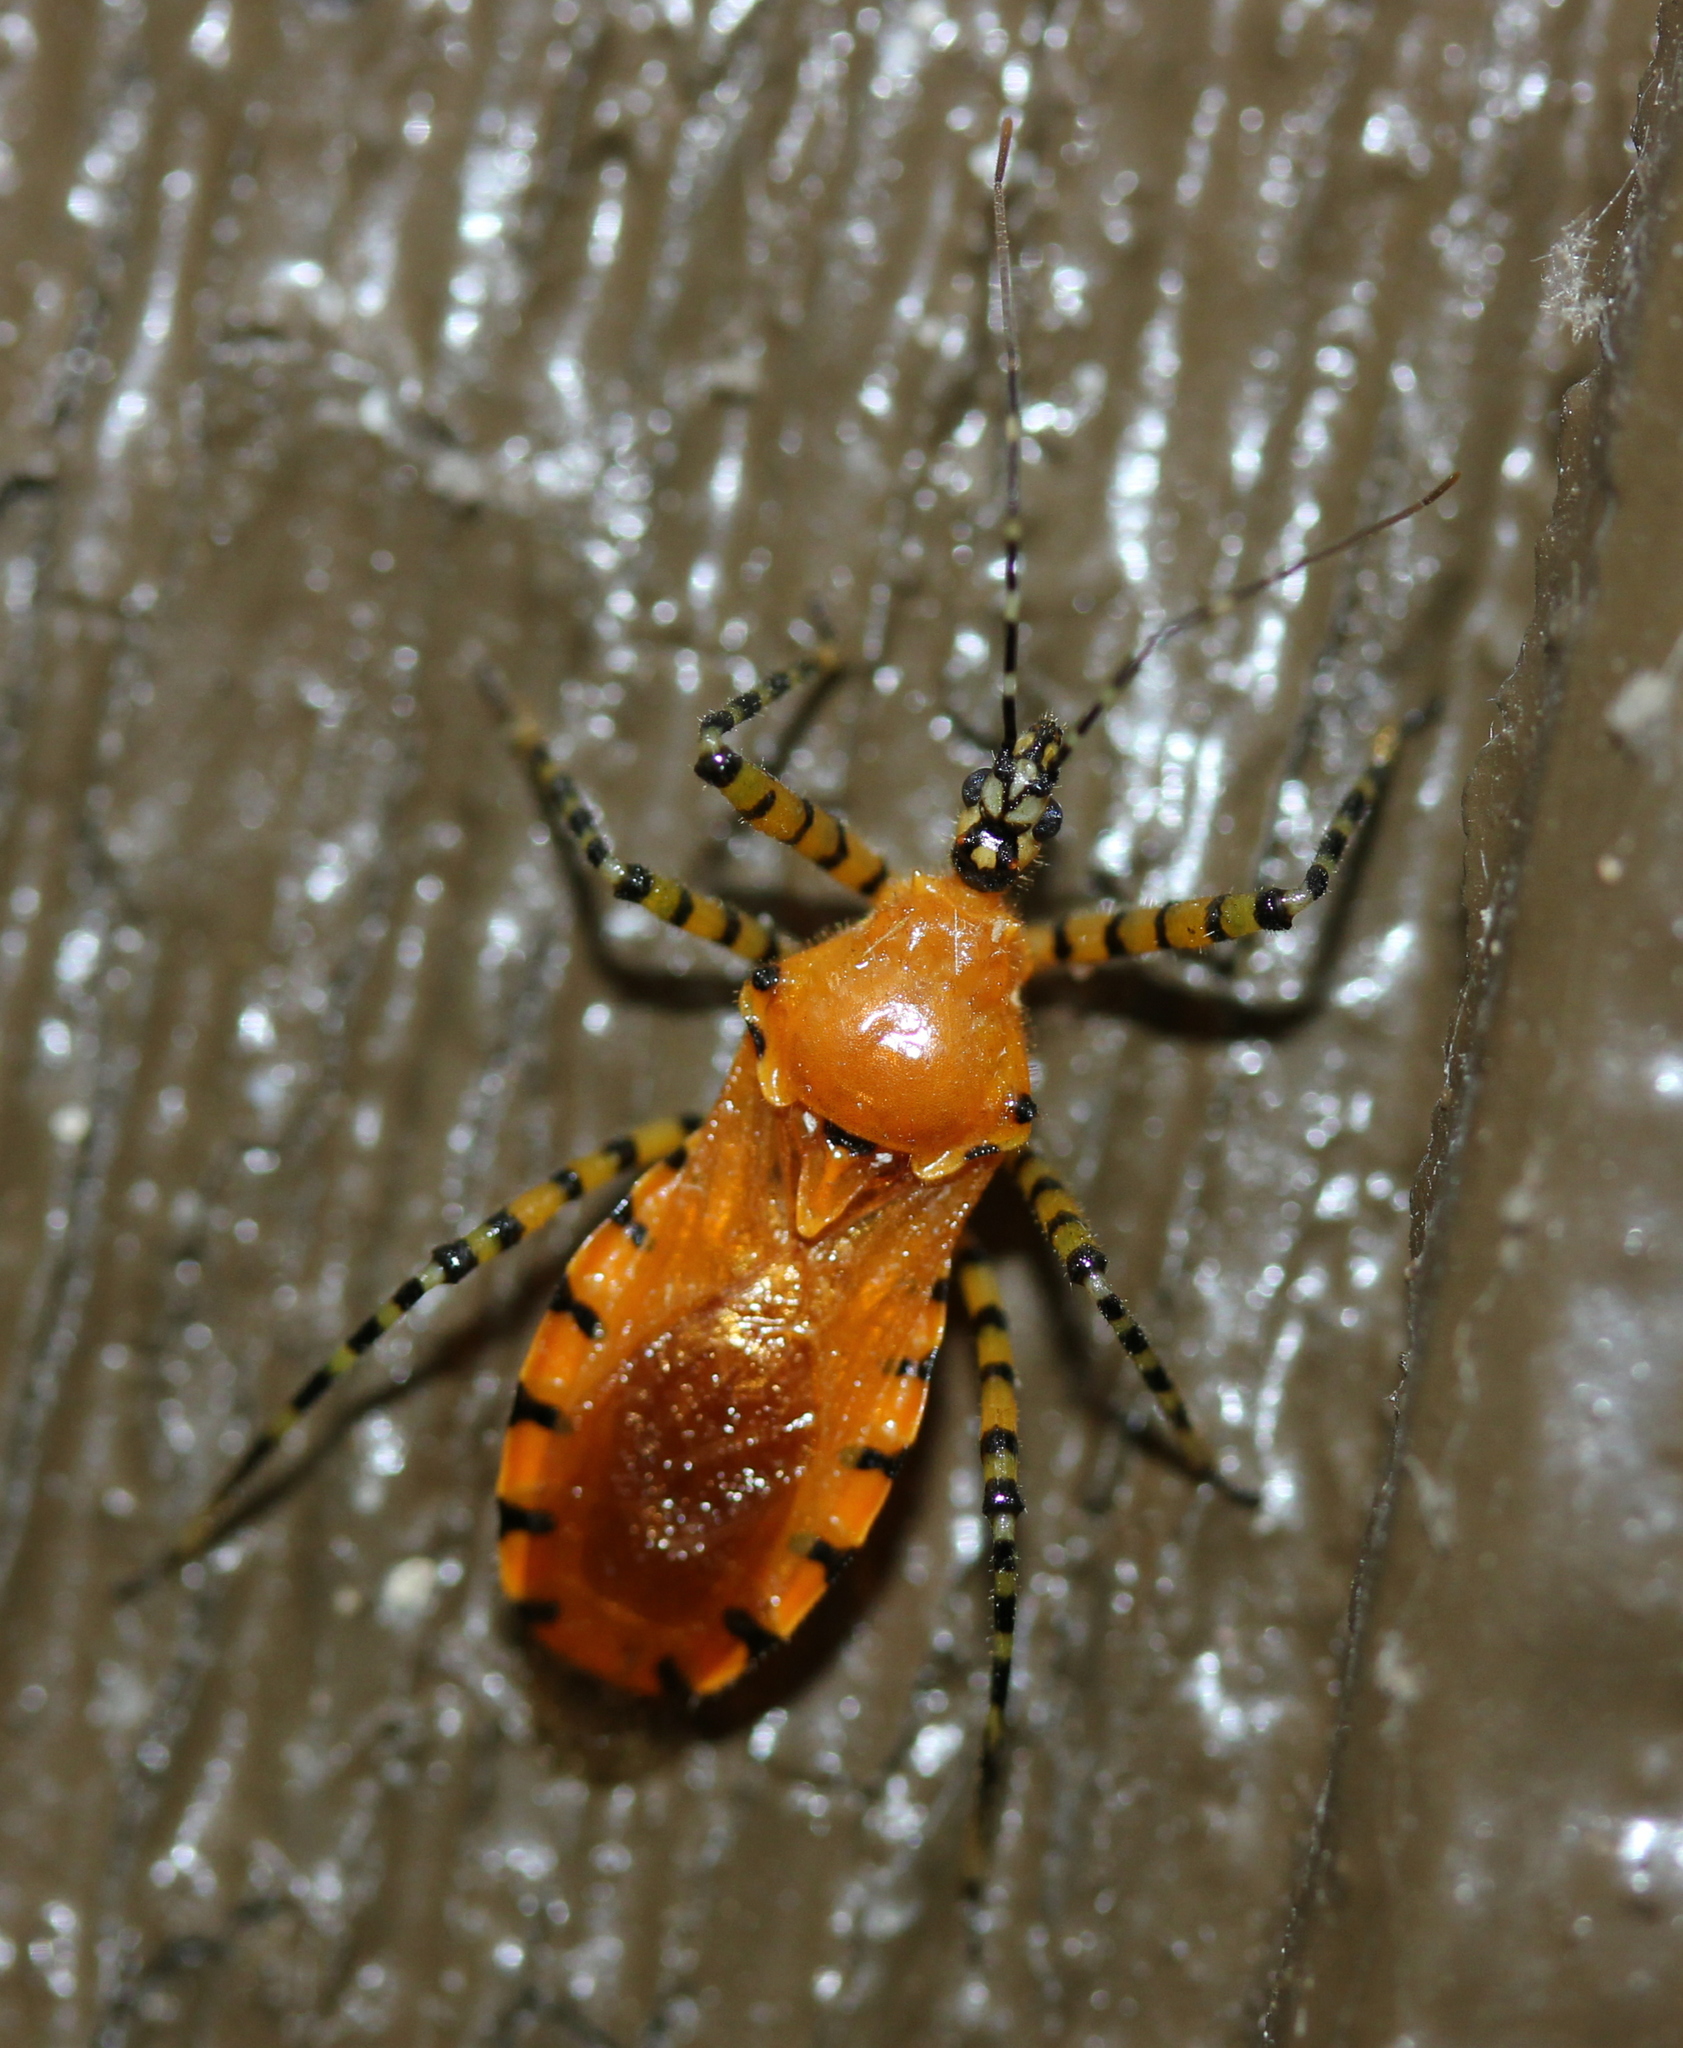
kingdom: Animalia
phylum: Arthropoda
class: Insecta
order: Hemiptera
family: Reduviidae
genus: Pselliopus
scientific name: Pselliopus barberi
